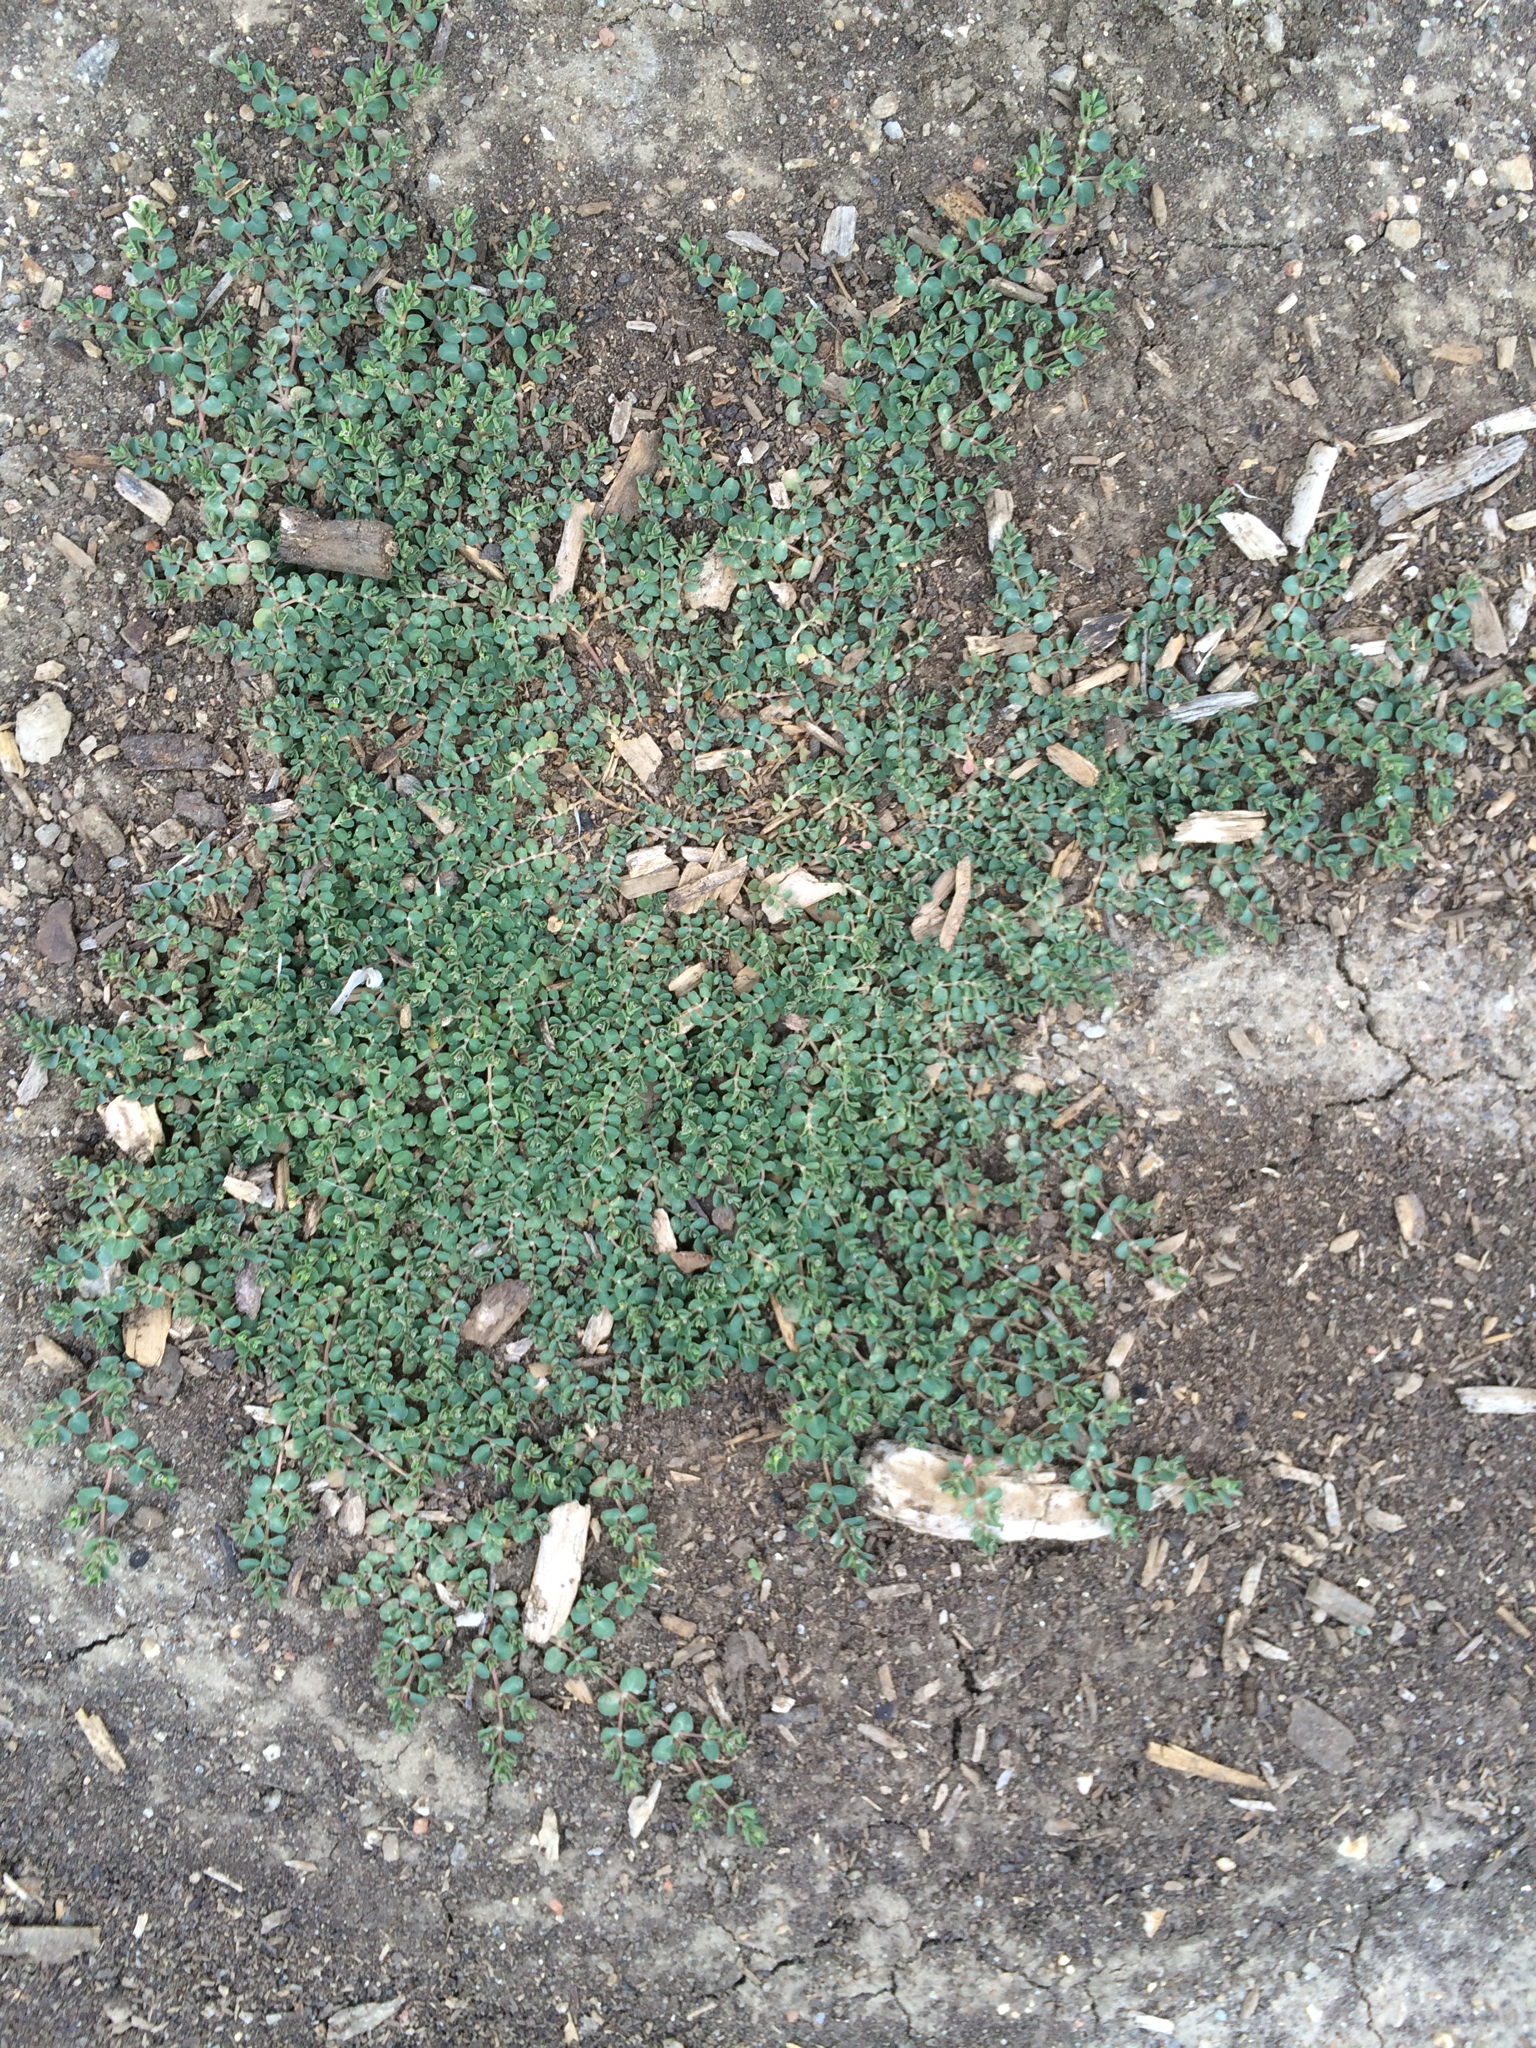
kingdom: Plantae
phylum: Tracheophyta
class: Magnoliopsida
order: Malpighiales
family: Euphorbiaceae
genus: Euphorbia
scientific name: Euphorbia serpens
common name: Matted sandmat
